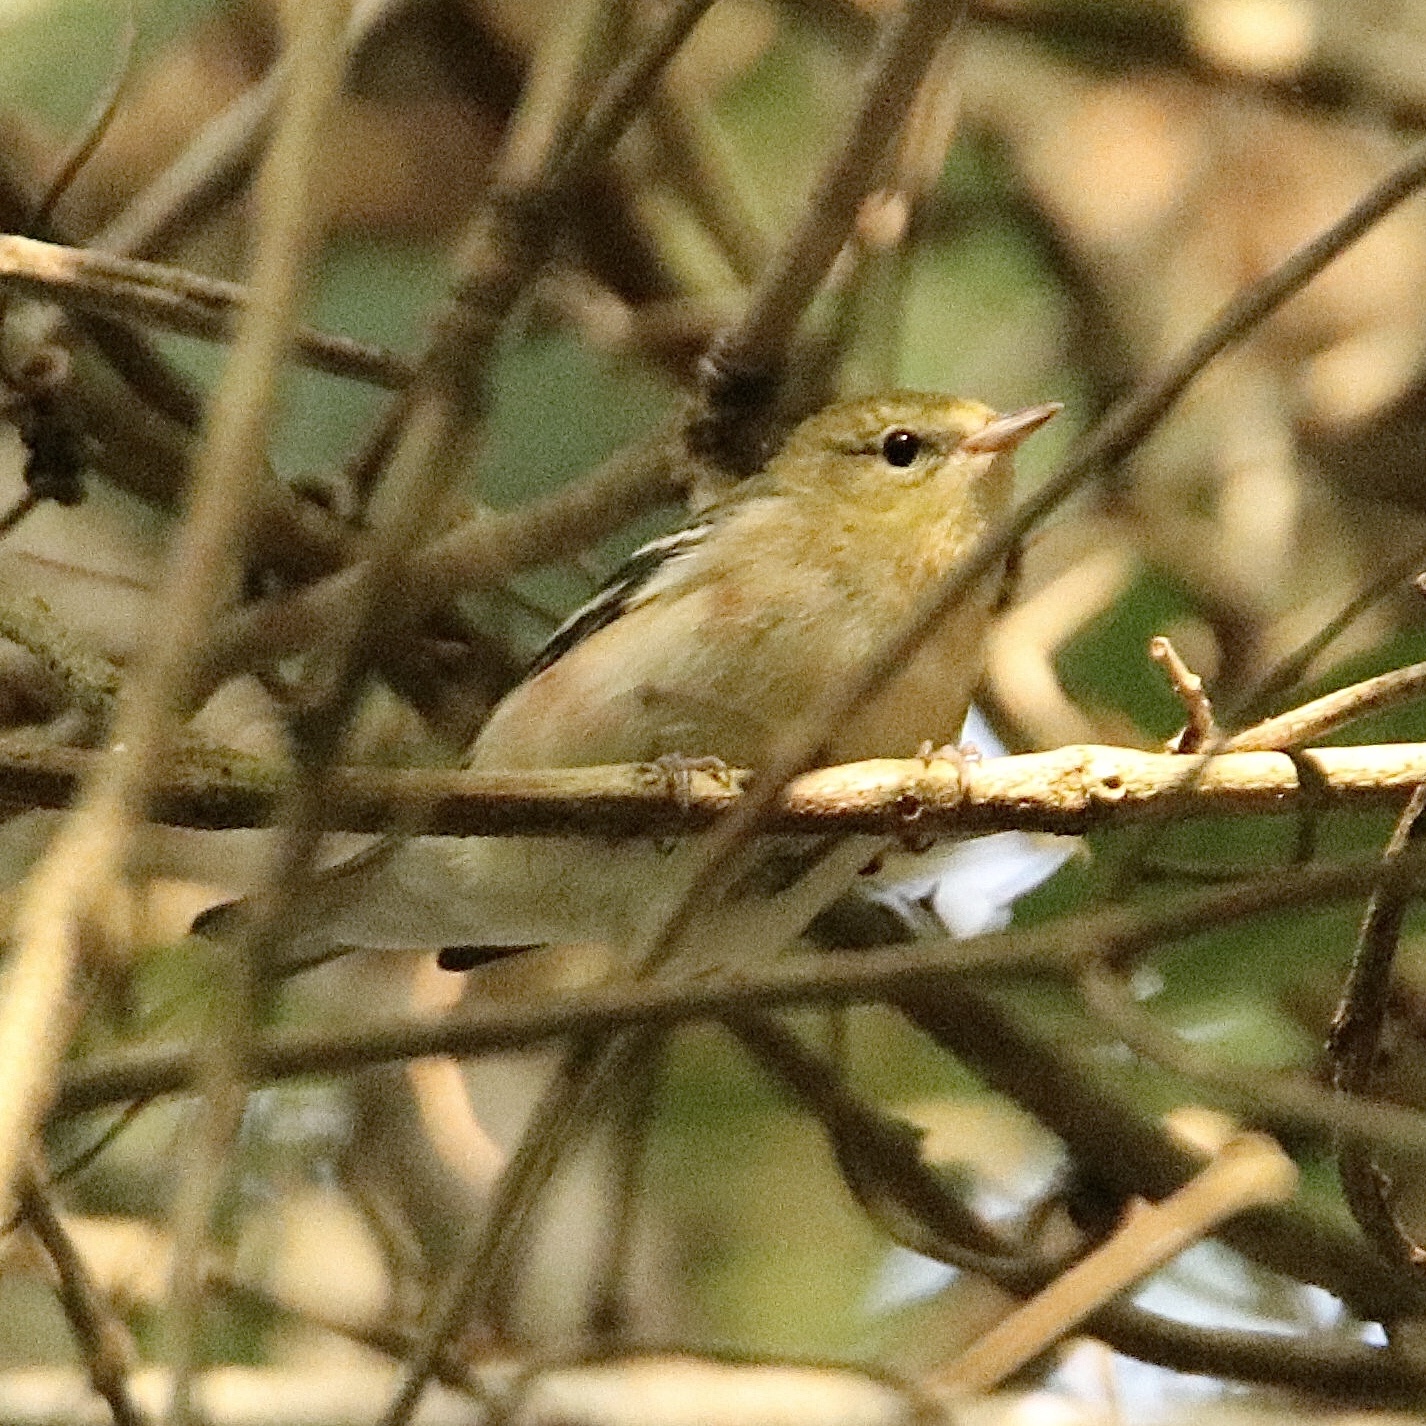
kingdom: Animalia
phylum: Chordata
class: Aves
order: Passeriformes
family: Parulidae
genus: Setophaga
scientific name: Setophaga castanea
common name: Bay-breasted warbler
